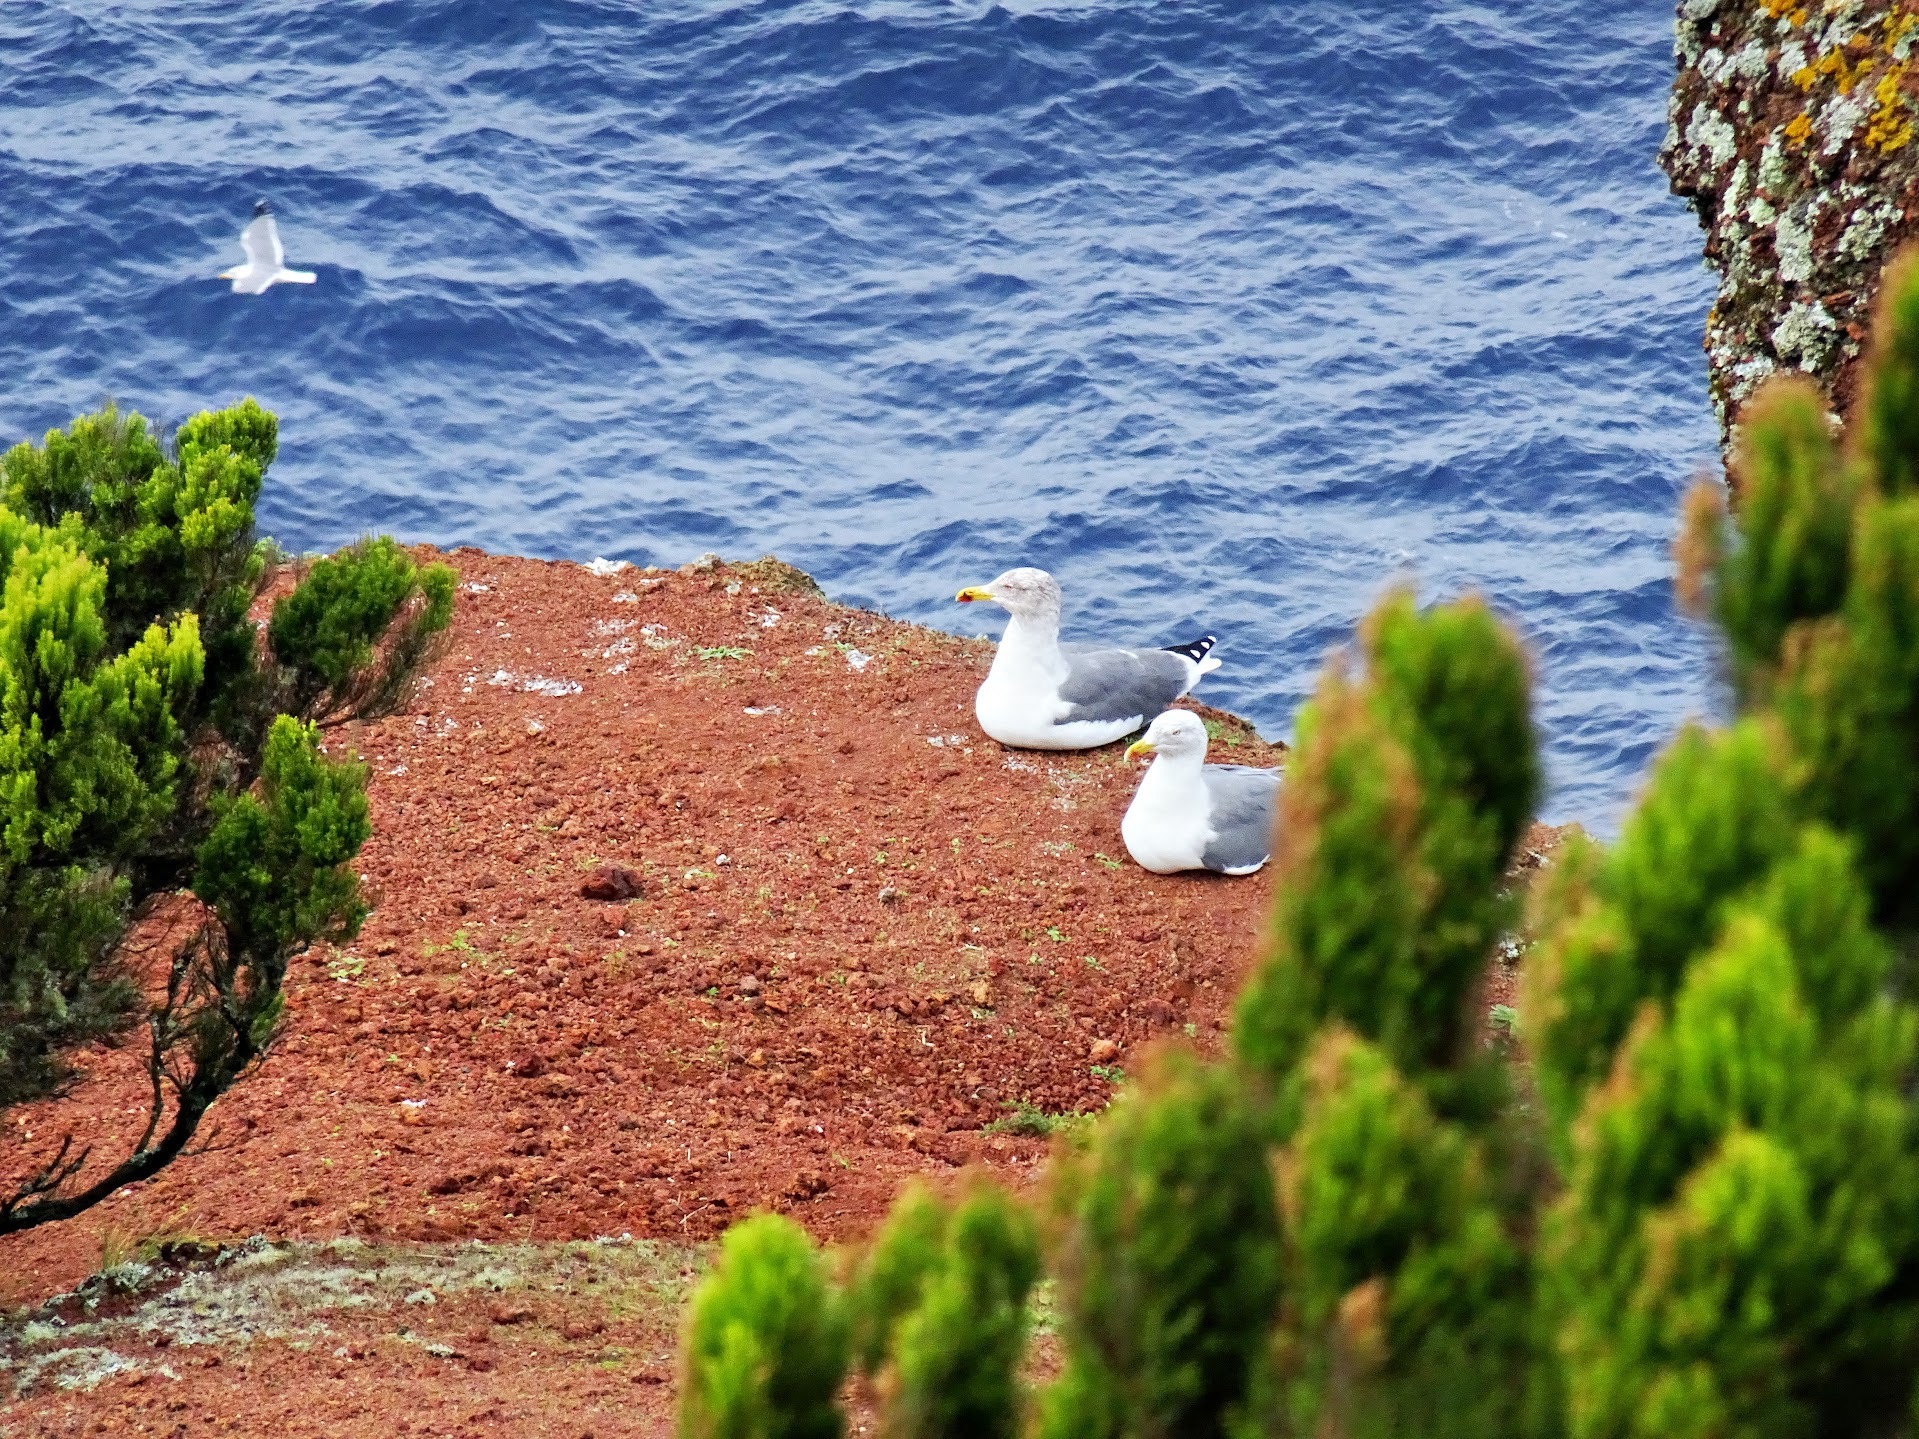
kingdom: Animalia
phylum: Chordata
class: Aves
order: Charadriiformes
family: Laridae
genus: Larus
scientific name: Larus michahellis
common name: Yellow-legged gull
